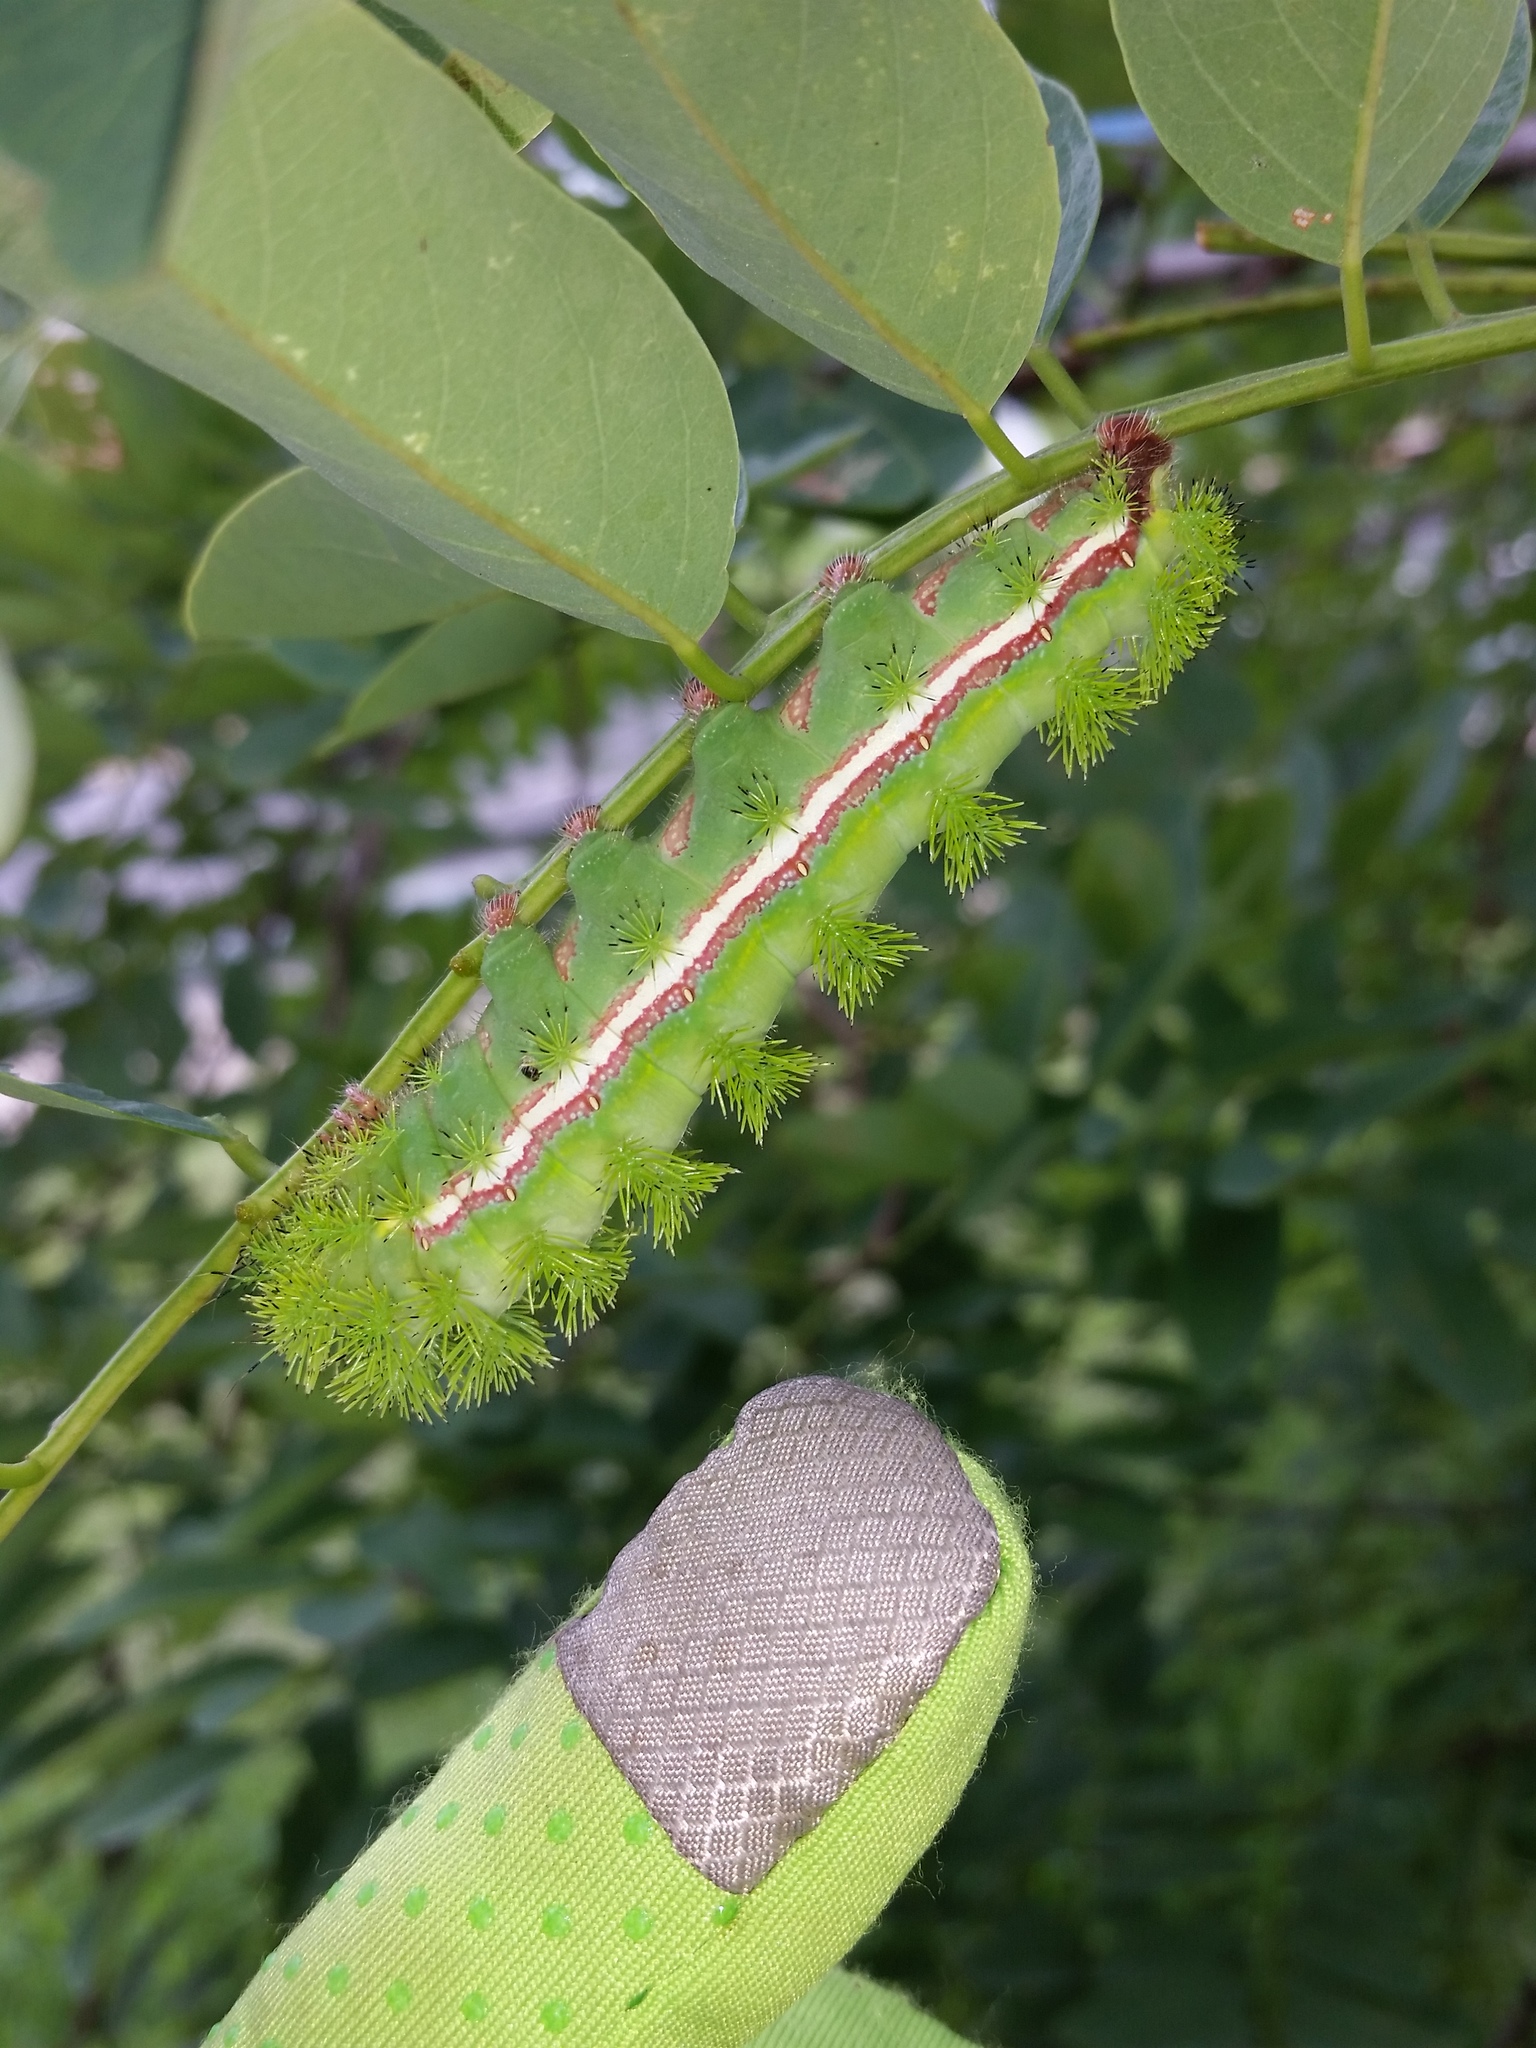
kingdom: Animalia
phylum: Arthropoda
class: Insecta
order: Lepidoptera
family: Saturniidae
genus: Automeris
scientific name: Automeris io
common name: Io moth
